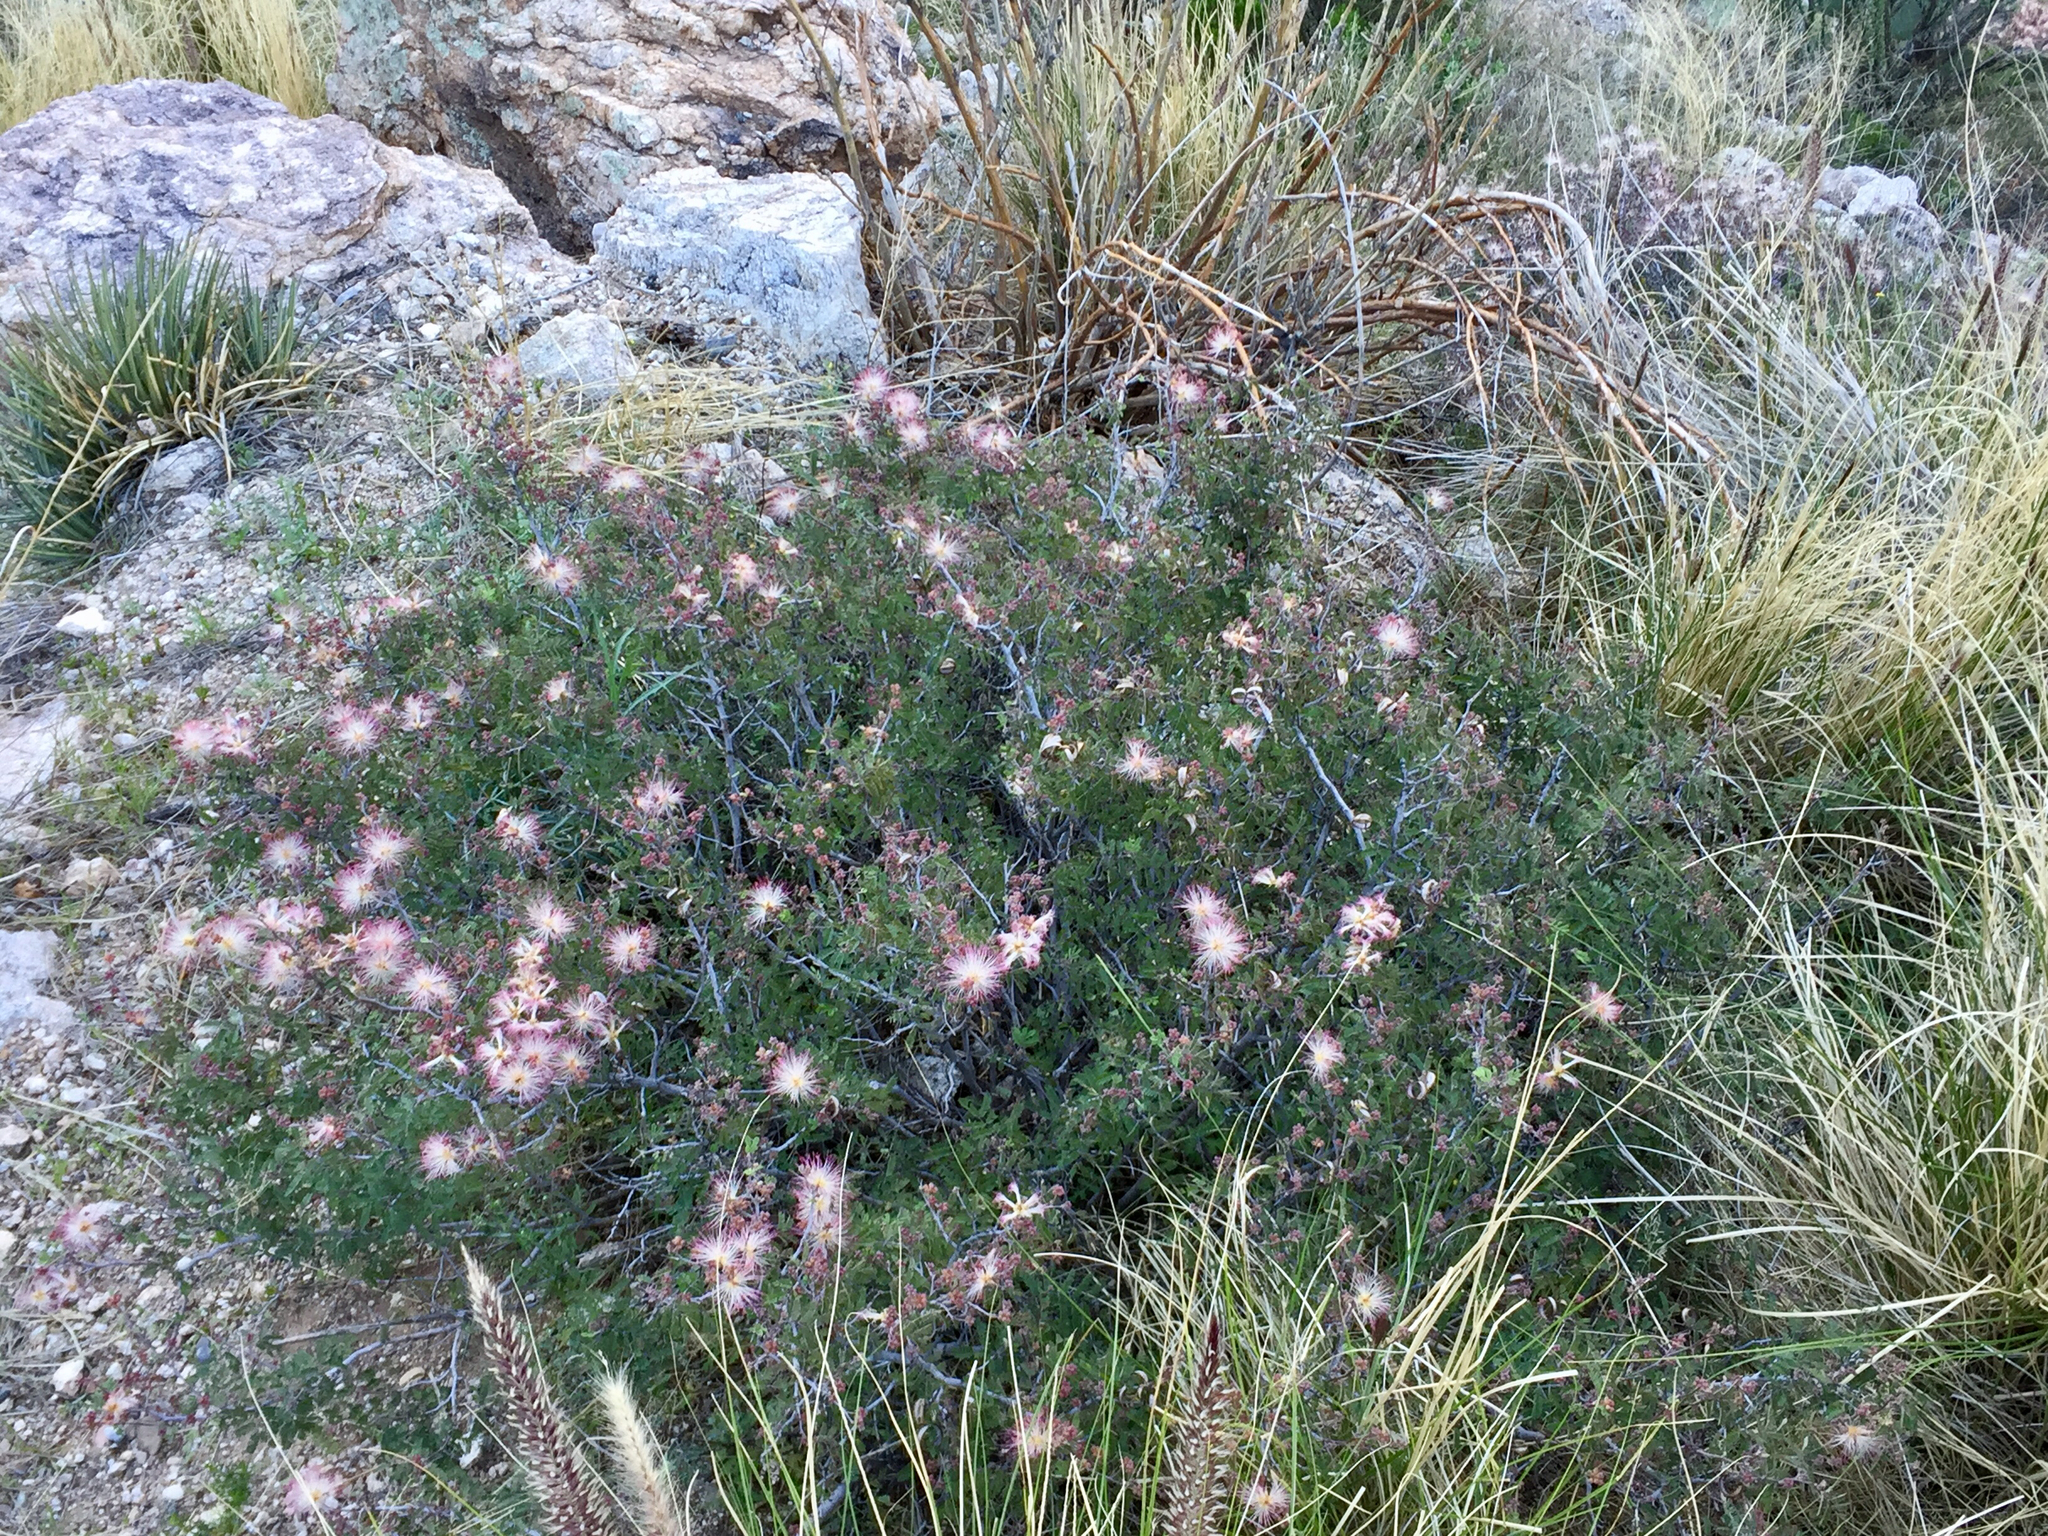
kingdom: Plantae
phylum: Tracheophyta
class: Magnoliopsida
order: Fabales
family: Fabaceae
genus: Calliandra
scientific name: Calliandra eriophylla
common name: Fairy-duster
